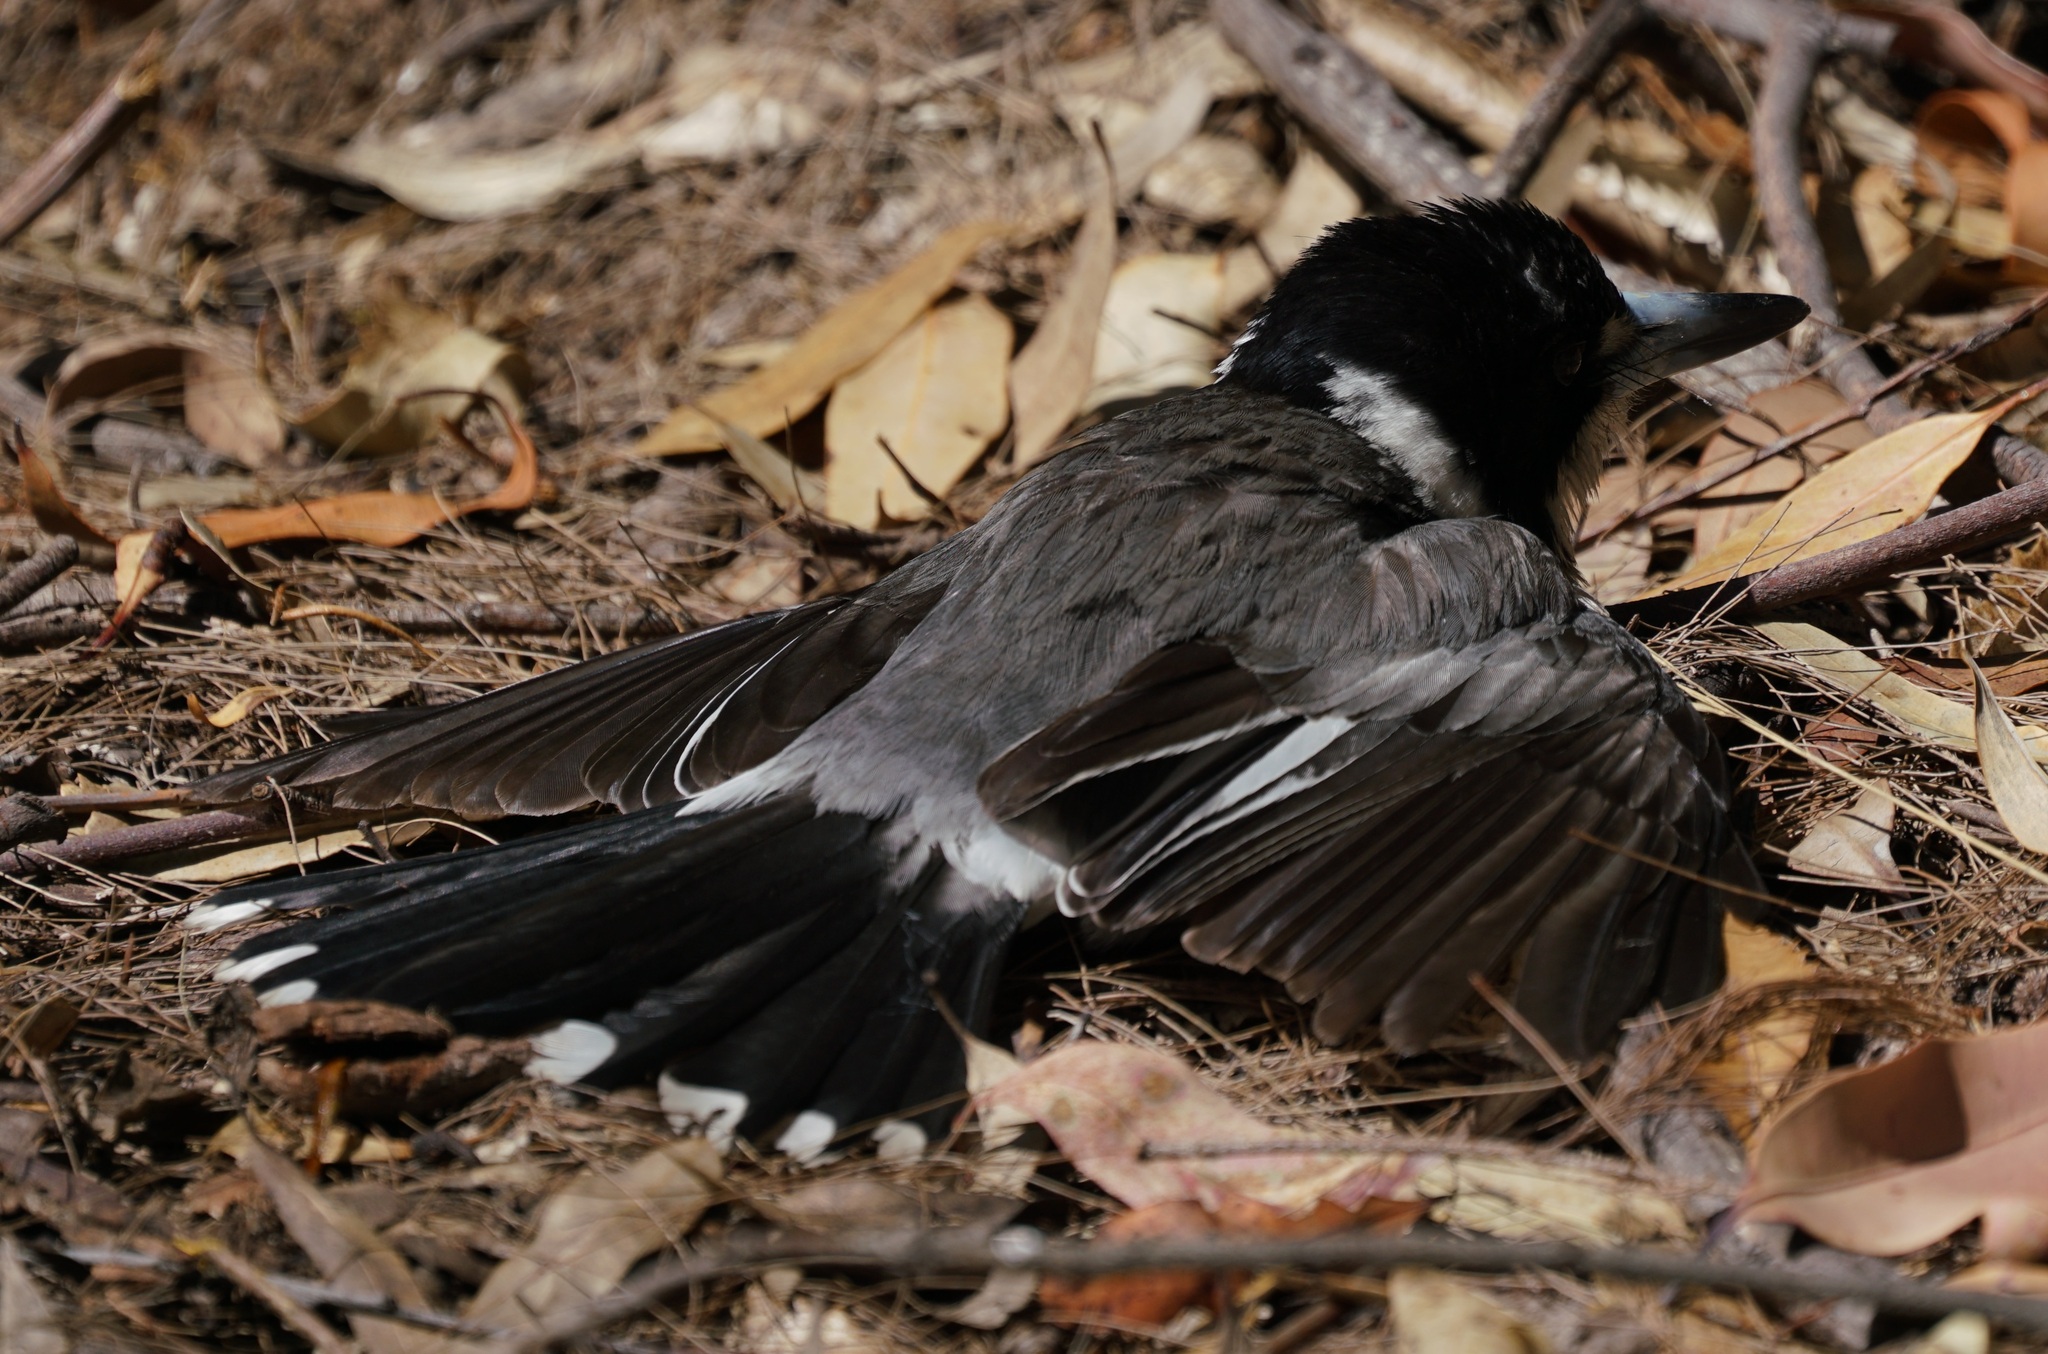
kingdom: Animalia
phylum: Chordata
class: Aves
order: Passeriformes
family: Cracticidae
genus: Cracticus
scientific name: Cracticus torquatus
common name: Grey butcherbird
